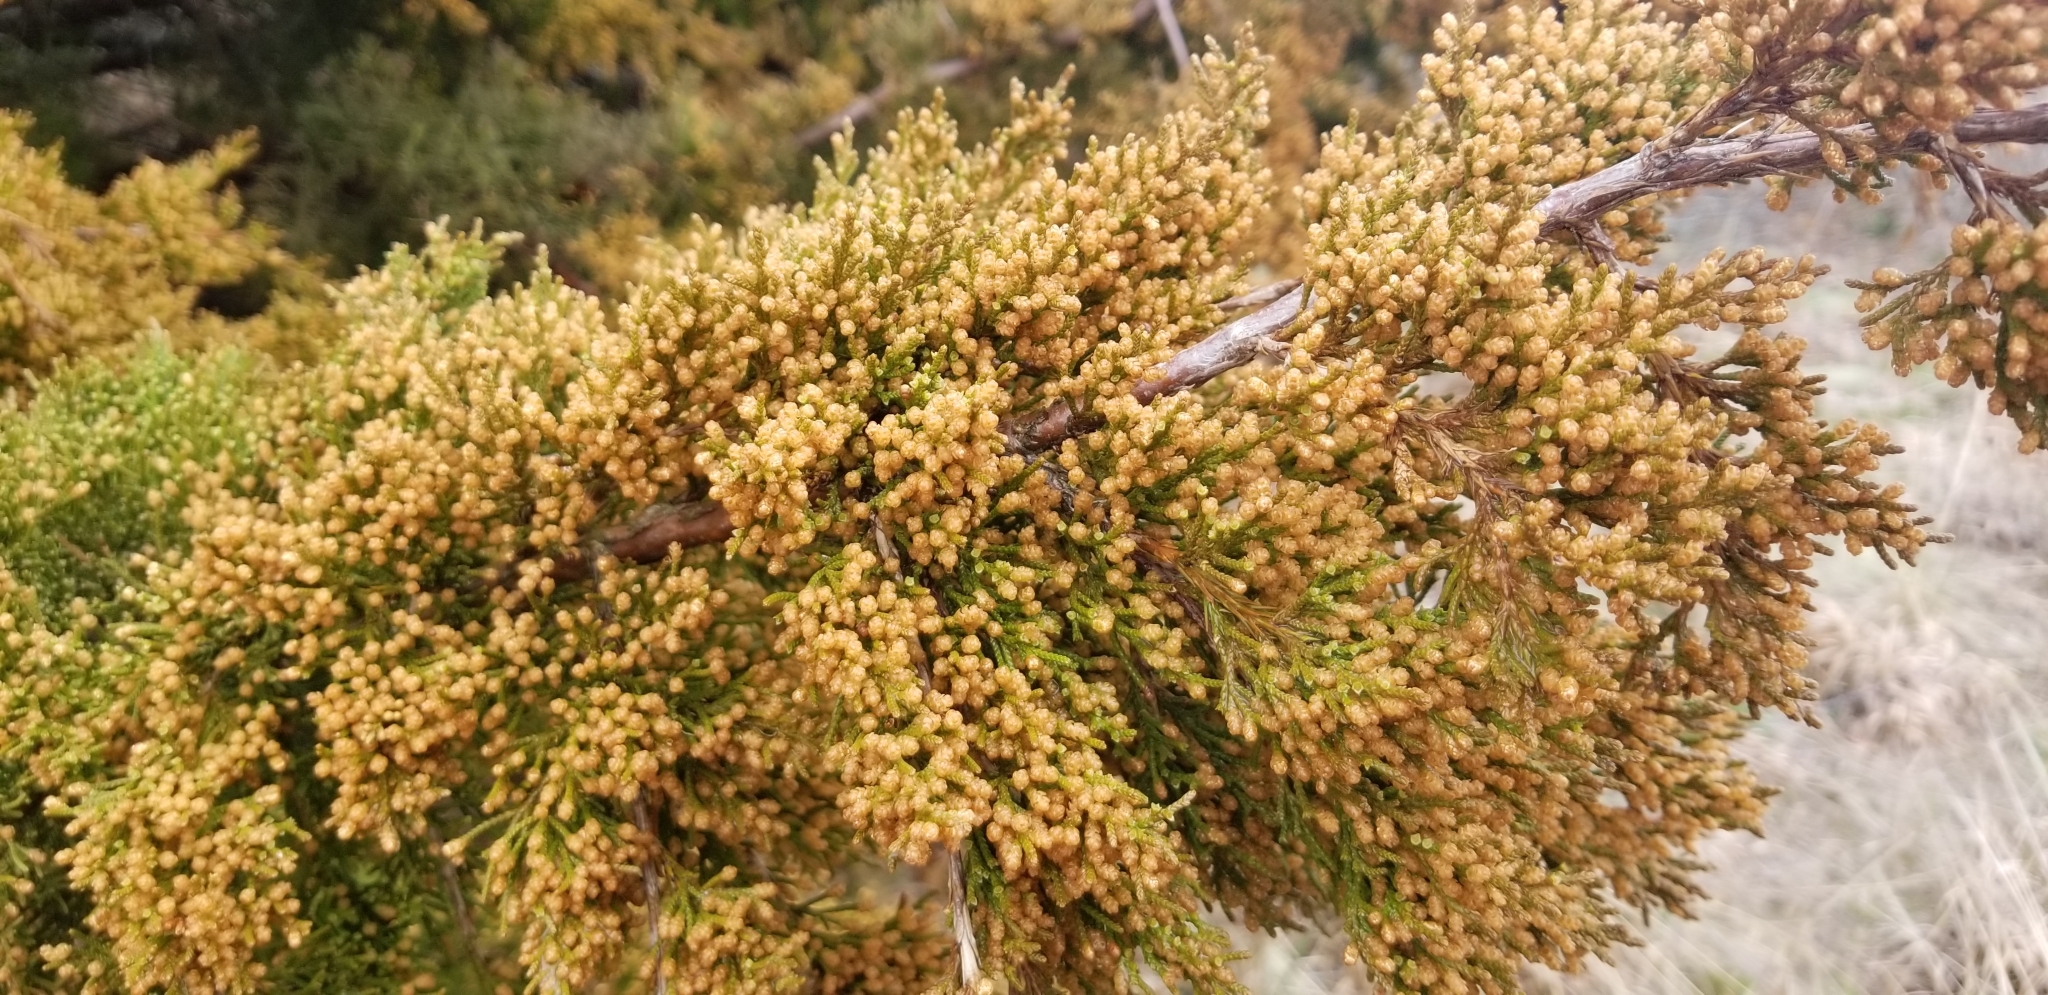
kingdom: Plantae
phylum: Tracheophyta
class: Pinopsida
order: Pinales
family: Cupressaceae
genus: Juniperus
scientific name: Juniperus virginiana
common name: Red juniper
